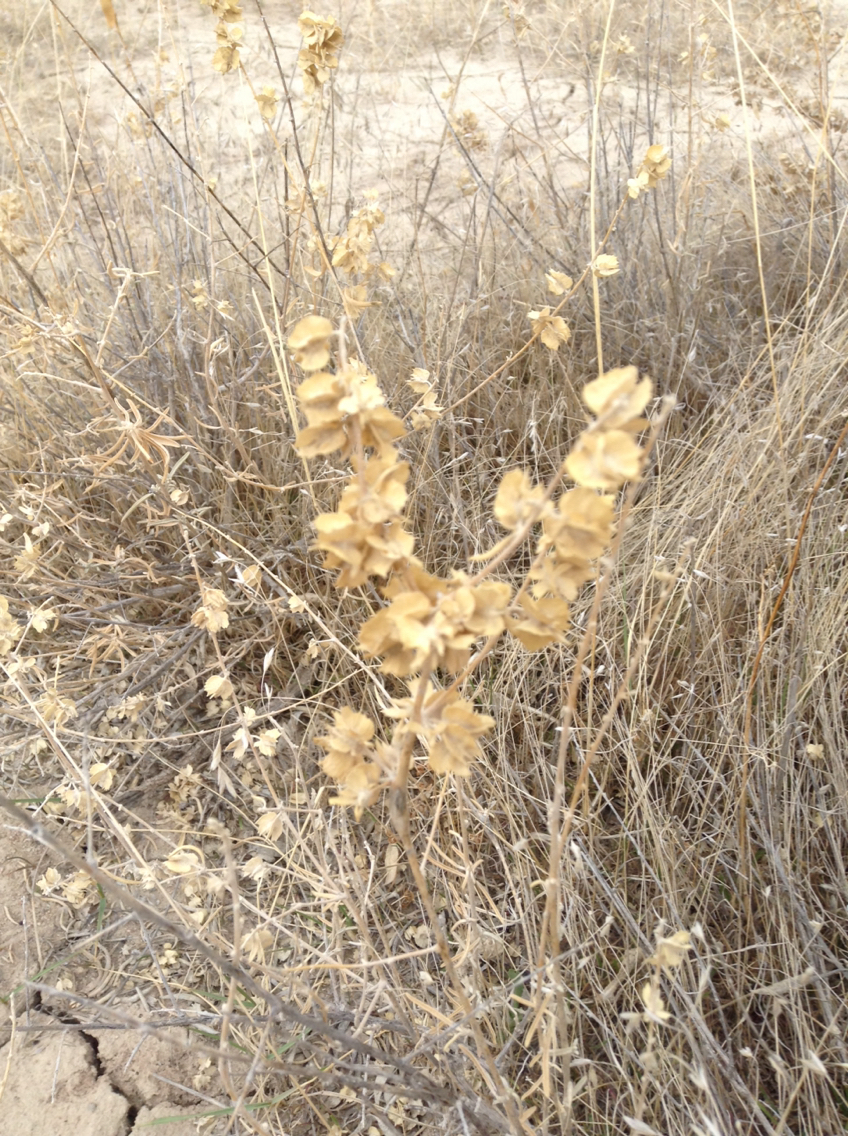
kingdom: Plantae
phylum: Tracheophyta
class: Magnoliopsida
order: Caryophyllales
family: Amaranthaceae
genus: Atriplex
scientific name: Atriplex canescens
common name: Four-wing saltbush
